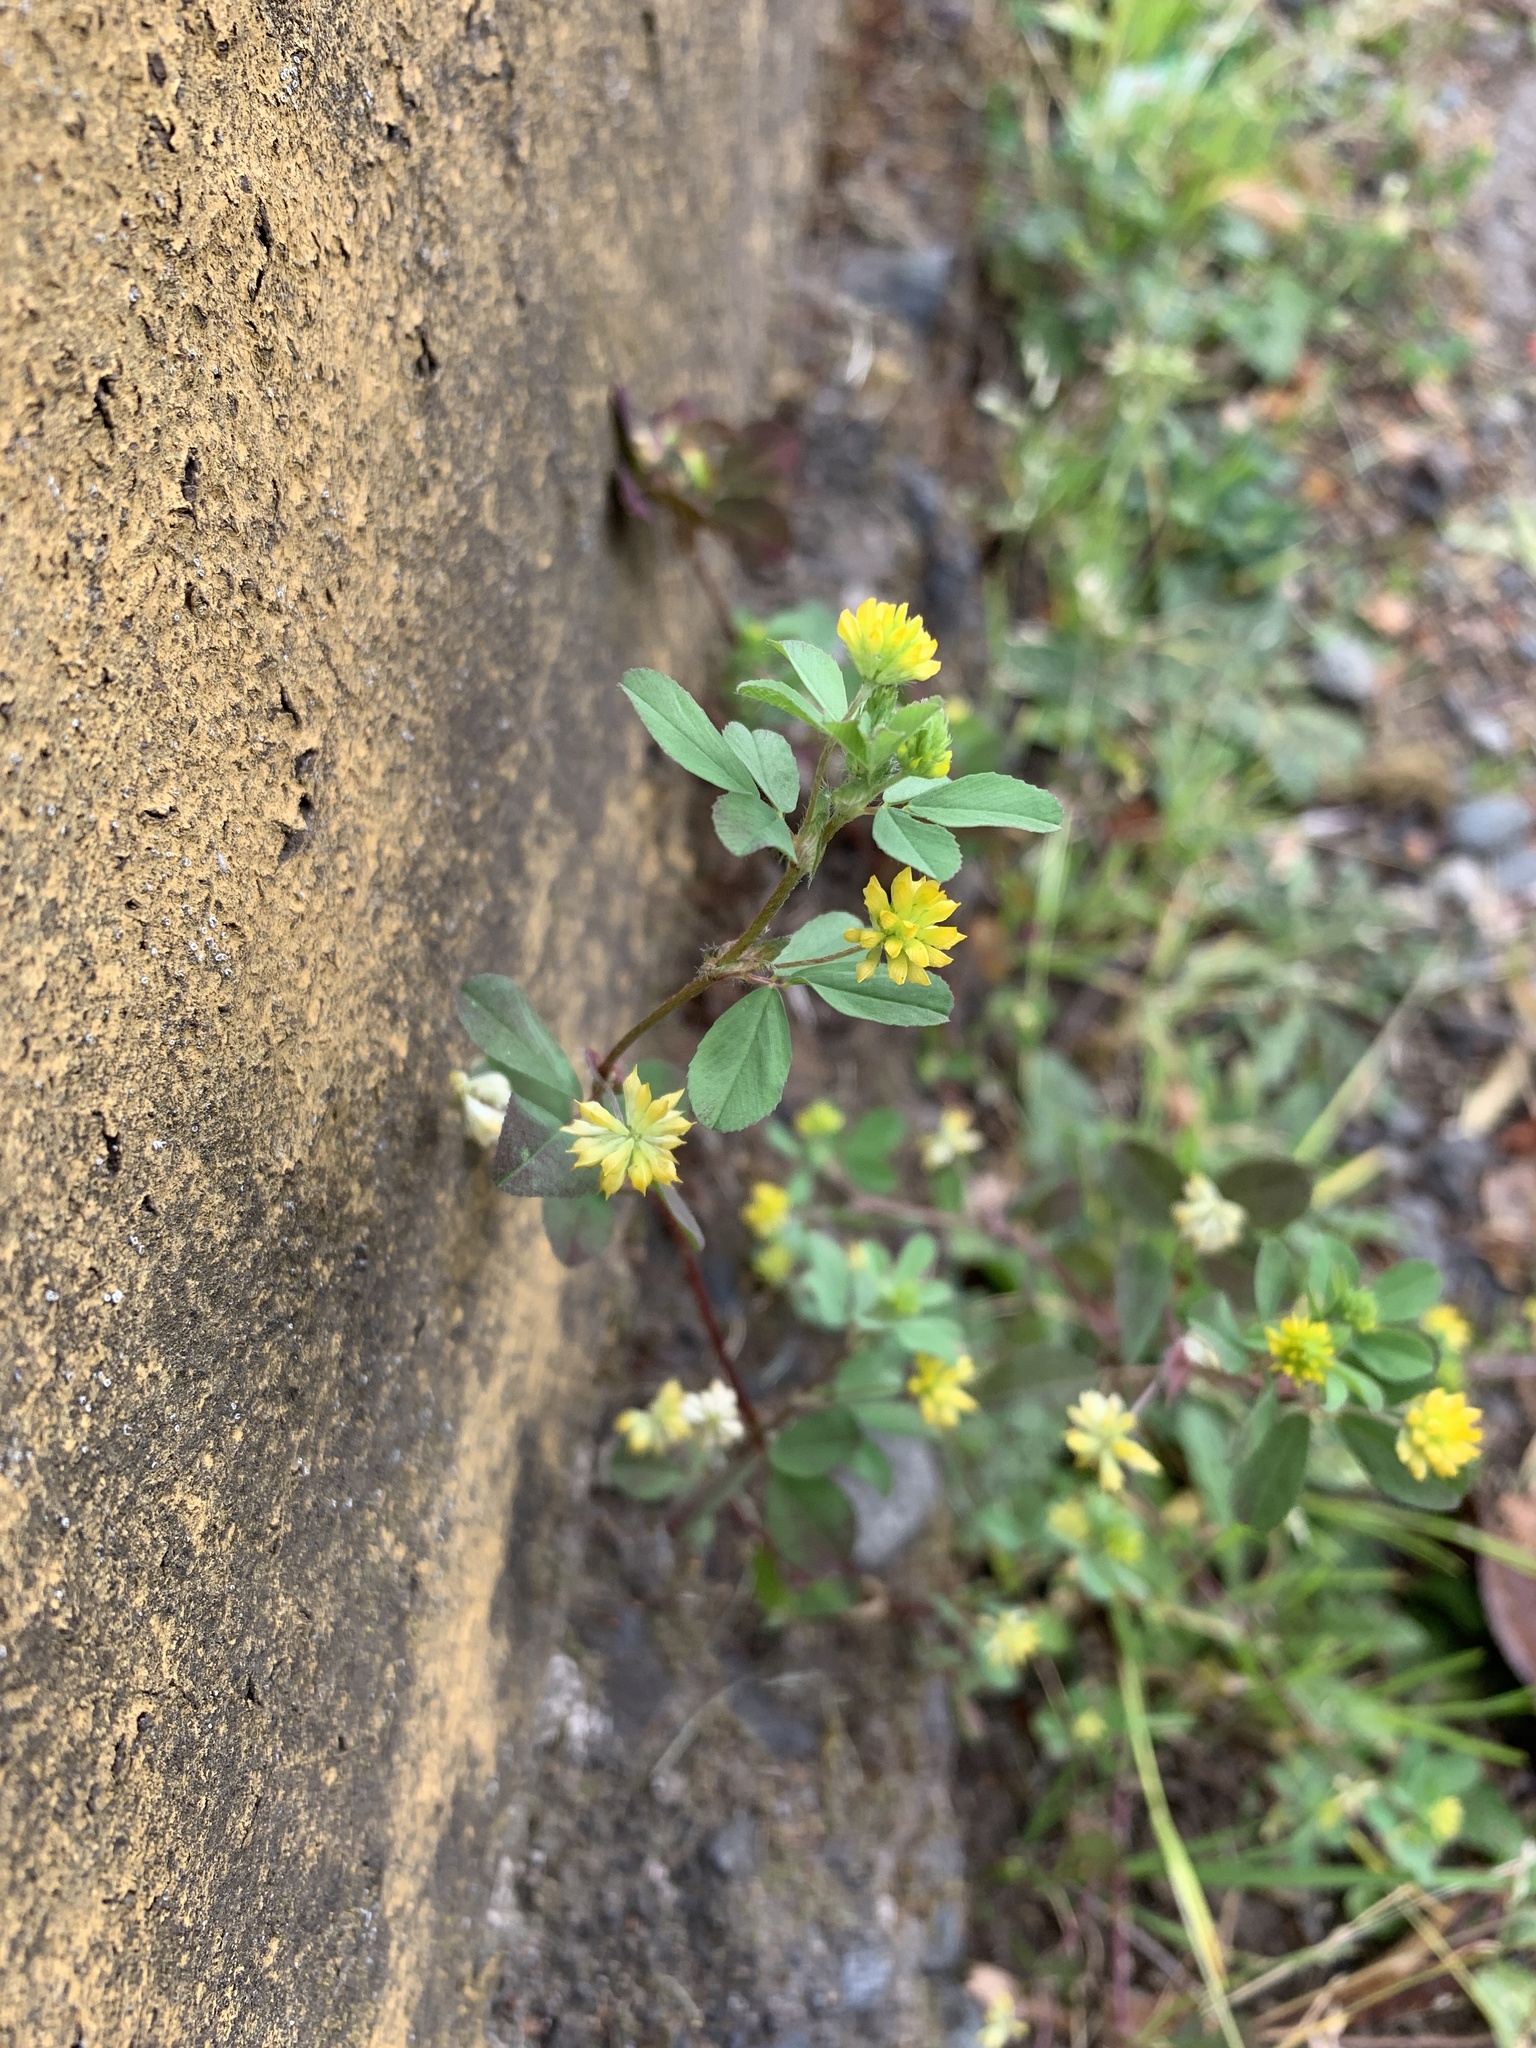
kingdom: Plantae
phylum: Tracheophyta
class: Magnoliopsida
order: Fabales
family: Fabaceae
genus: Trifolium
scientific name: Trifolium dubium
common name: Suckling clover
